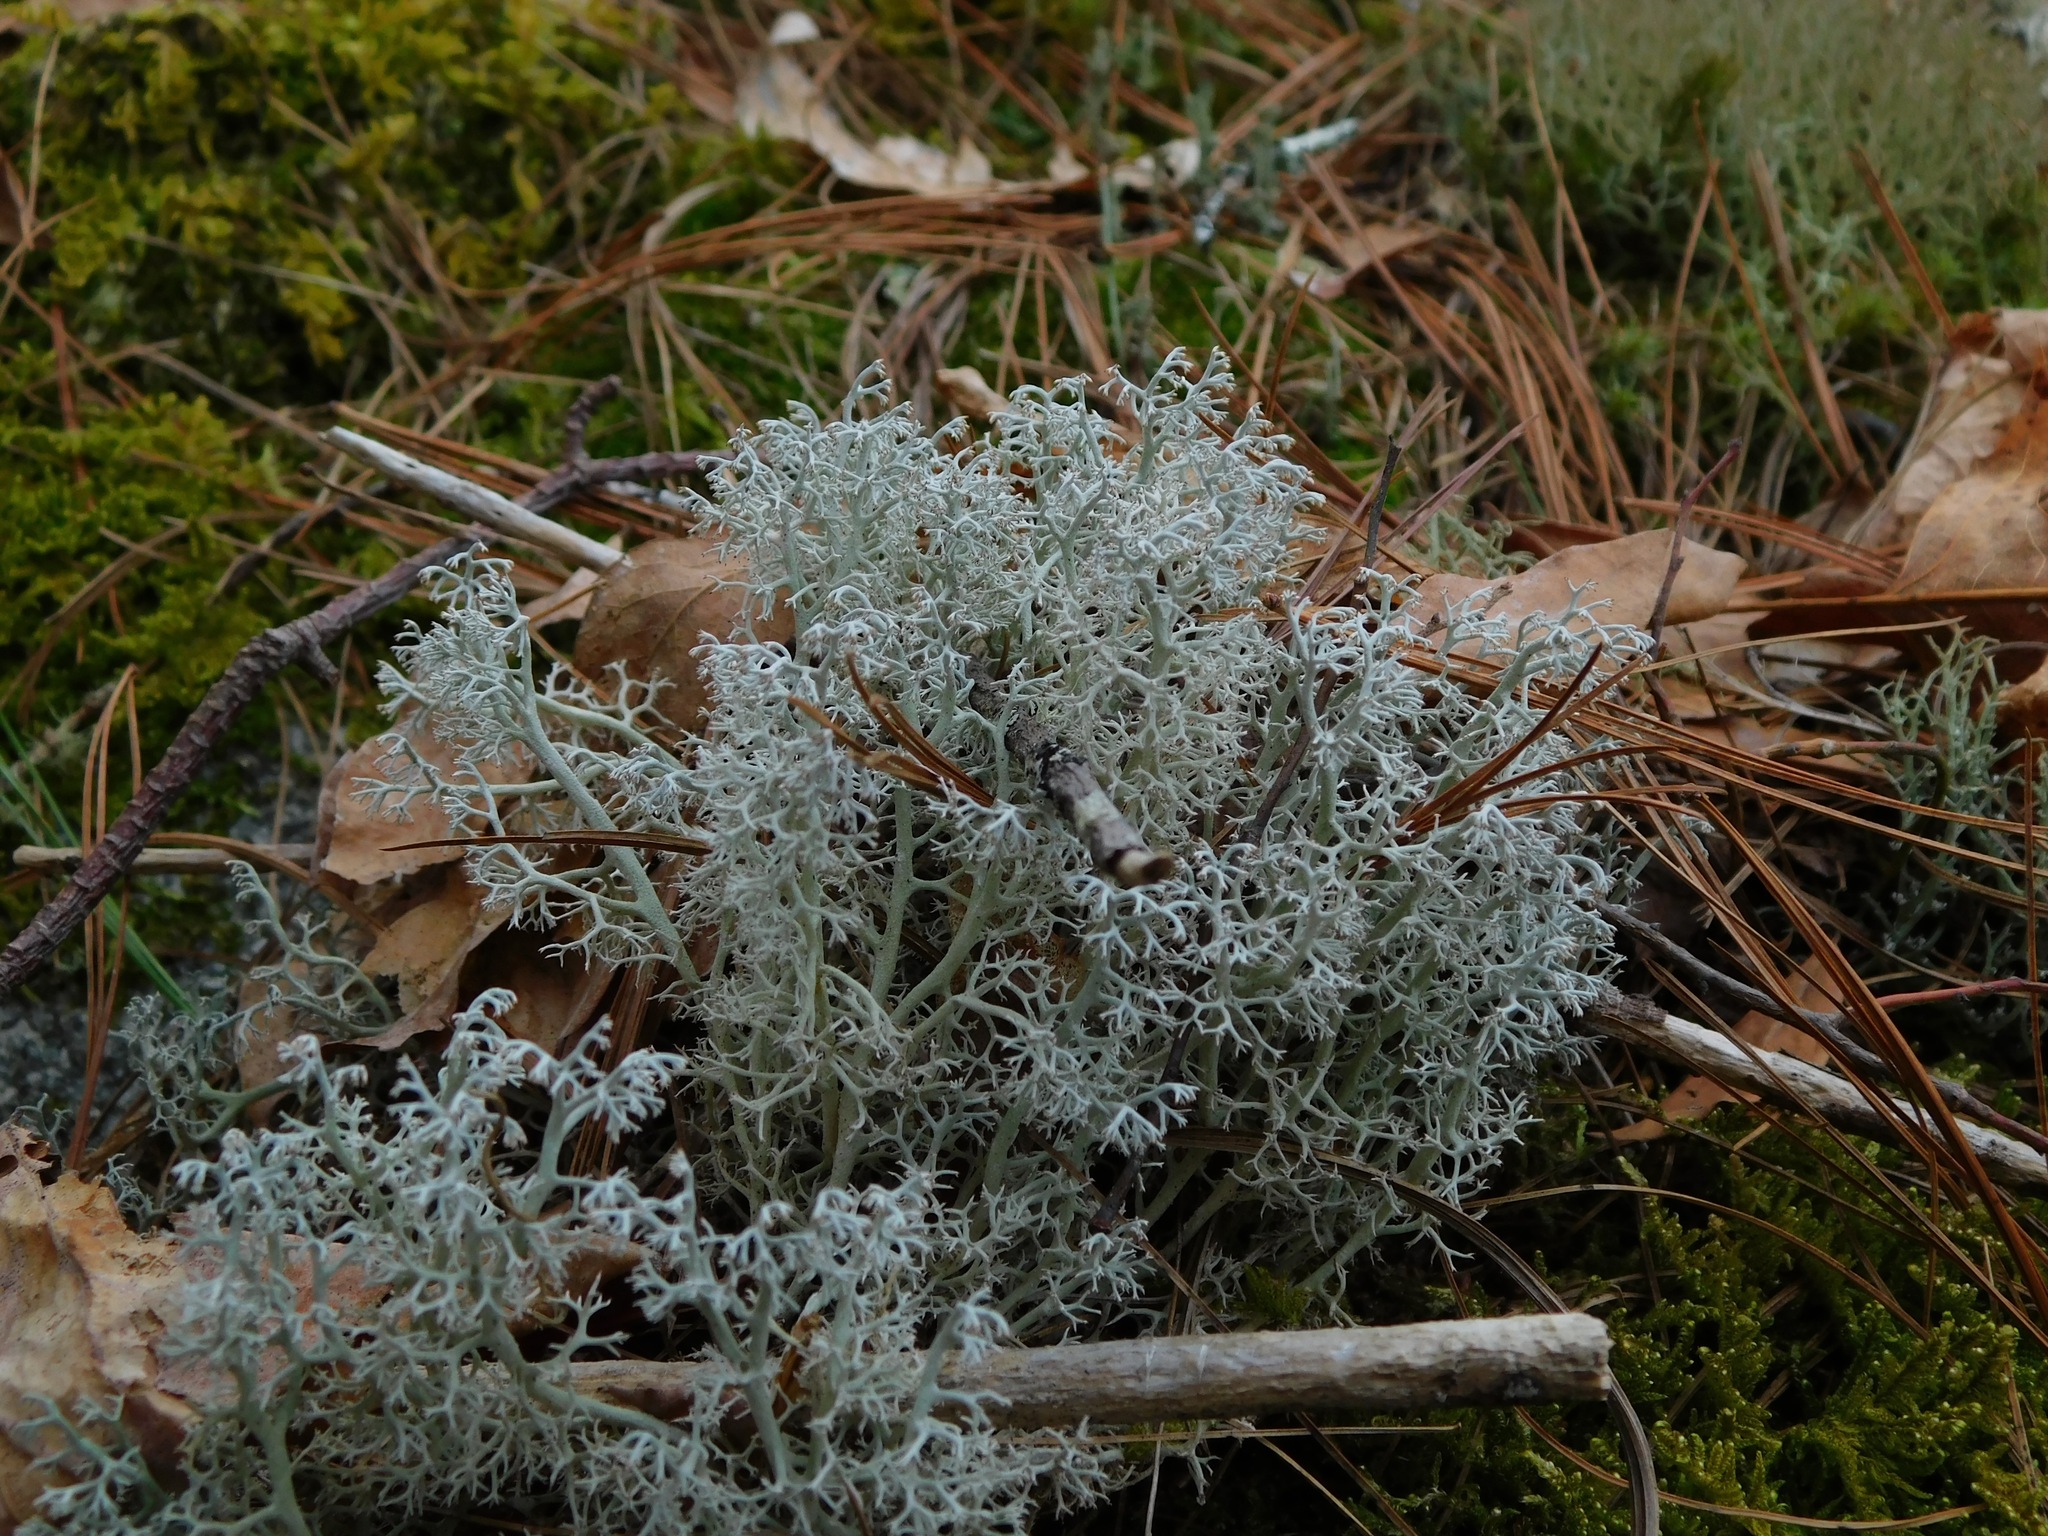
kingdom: Fungi
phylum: Ascomycota
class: Lecanoromycetes
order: Lecanorales
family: Cladoniaceae
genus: Cladonia
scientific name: Cladonia rangiferina
